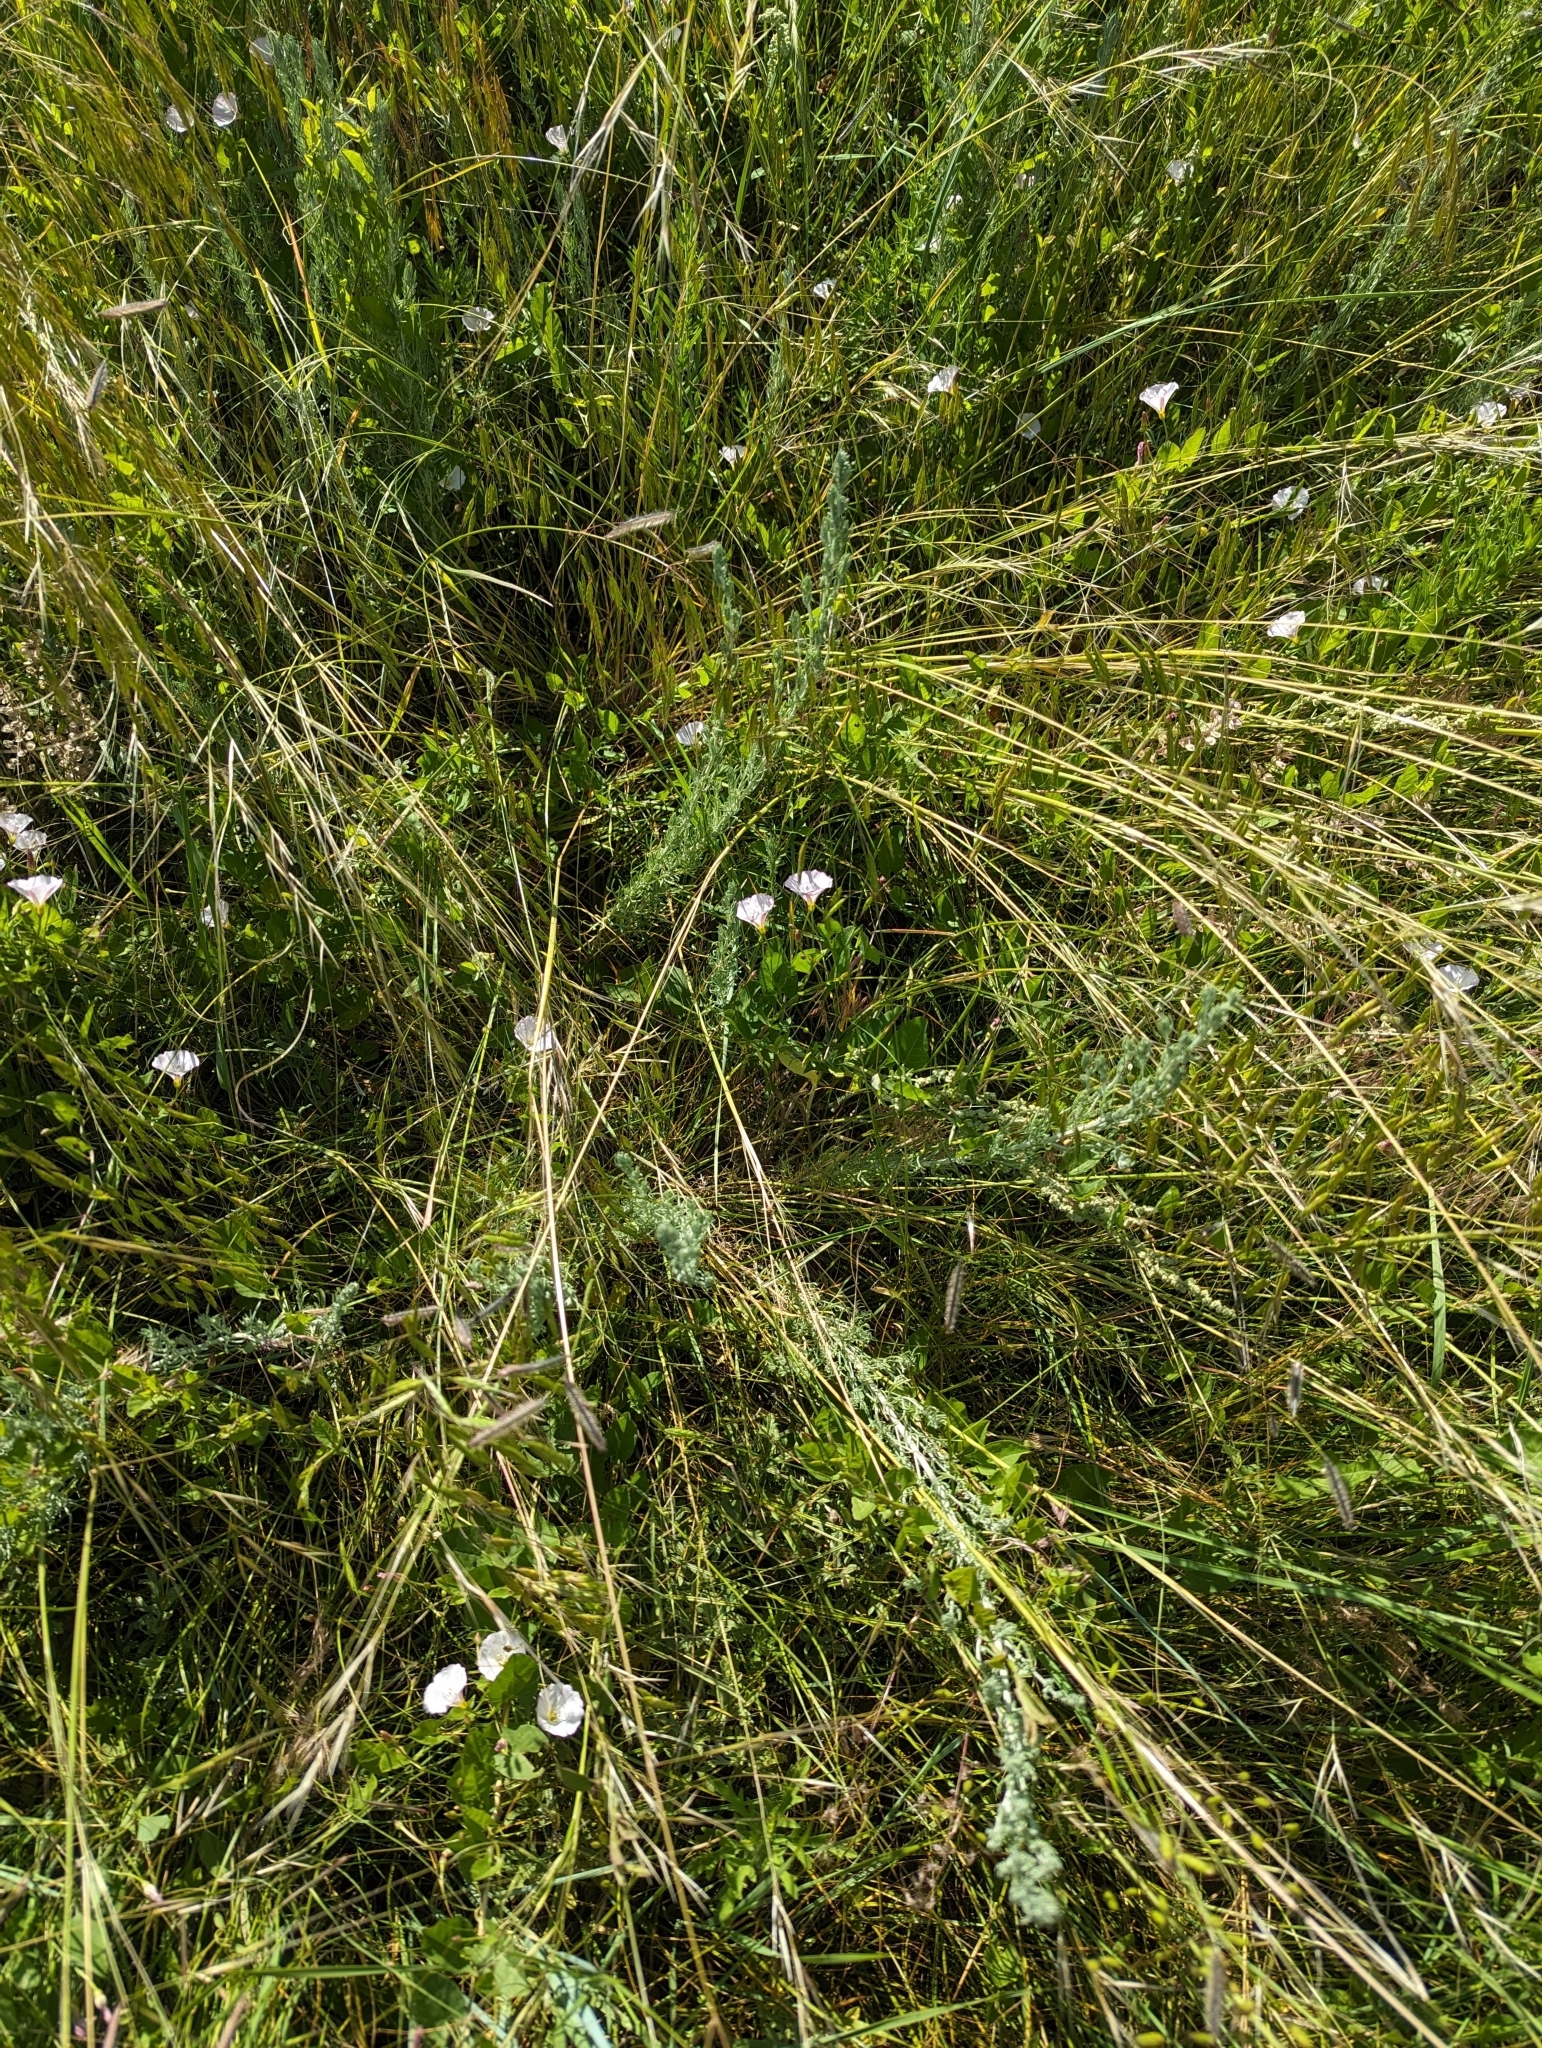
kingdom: Plantae
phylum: Tracheophyta
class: Magnoliopsida
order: Solanales
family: Convolvulaceae
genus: Convolvulus
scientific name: Convolvulus arvensis
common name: Field bindweed
